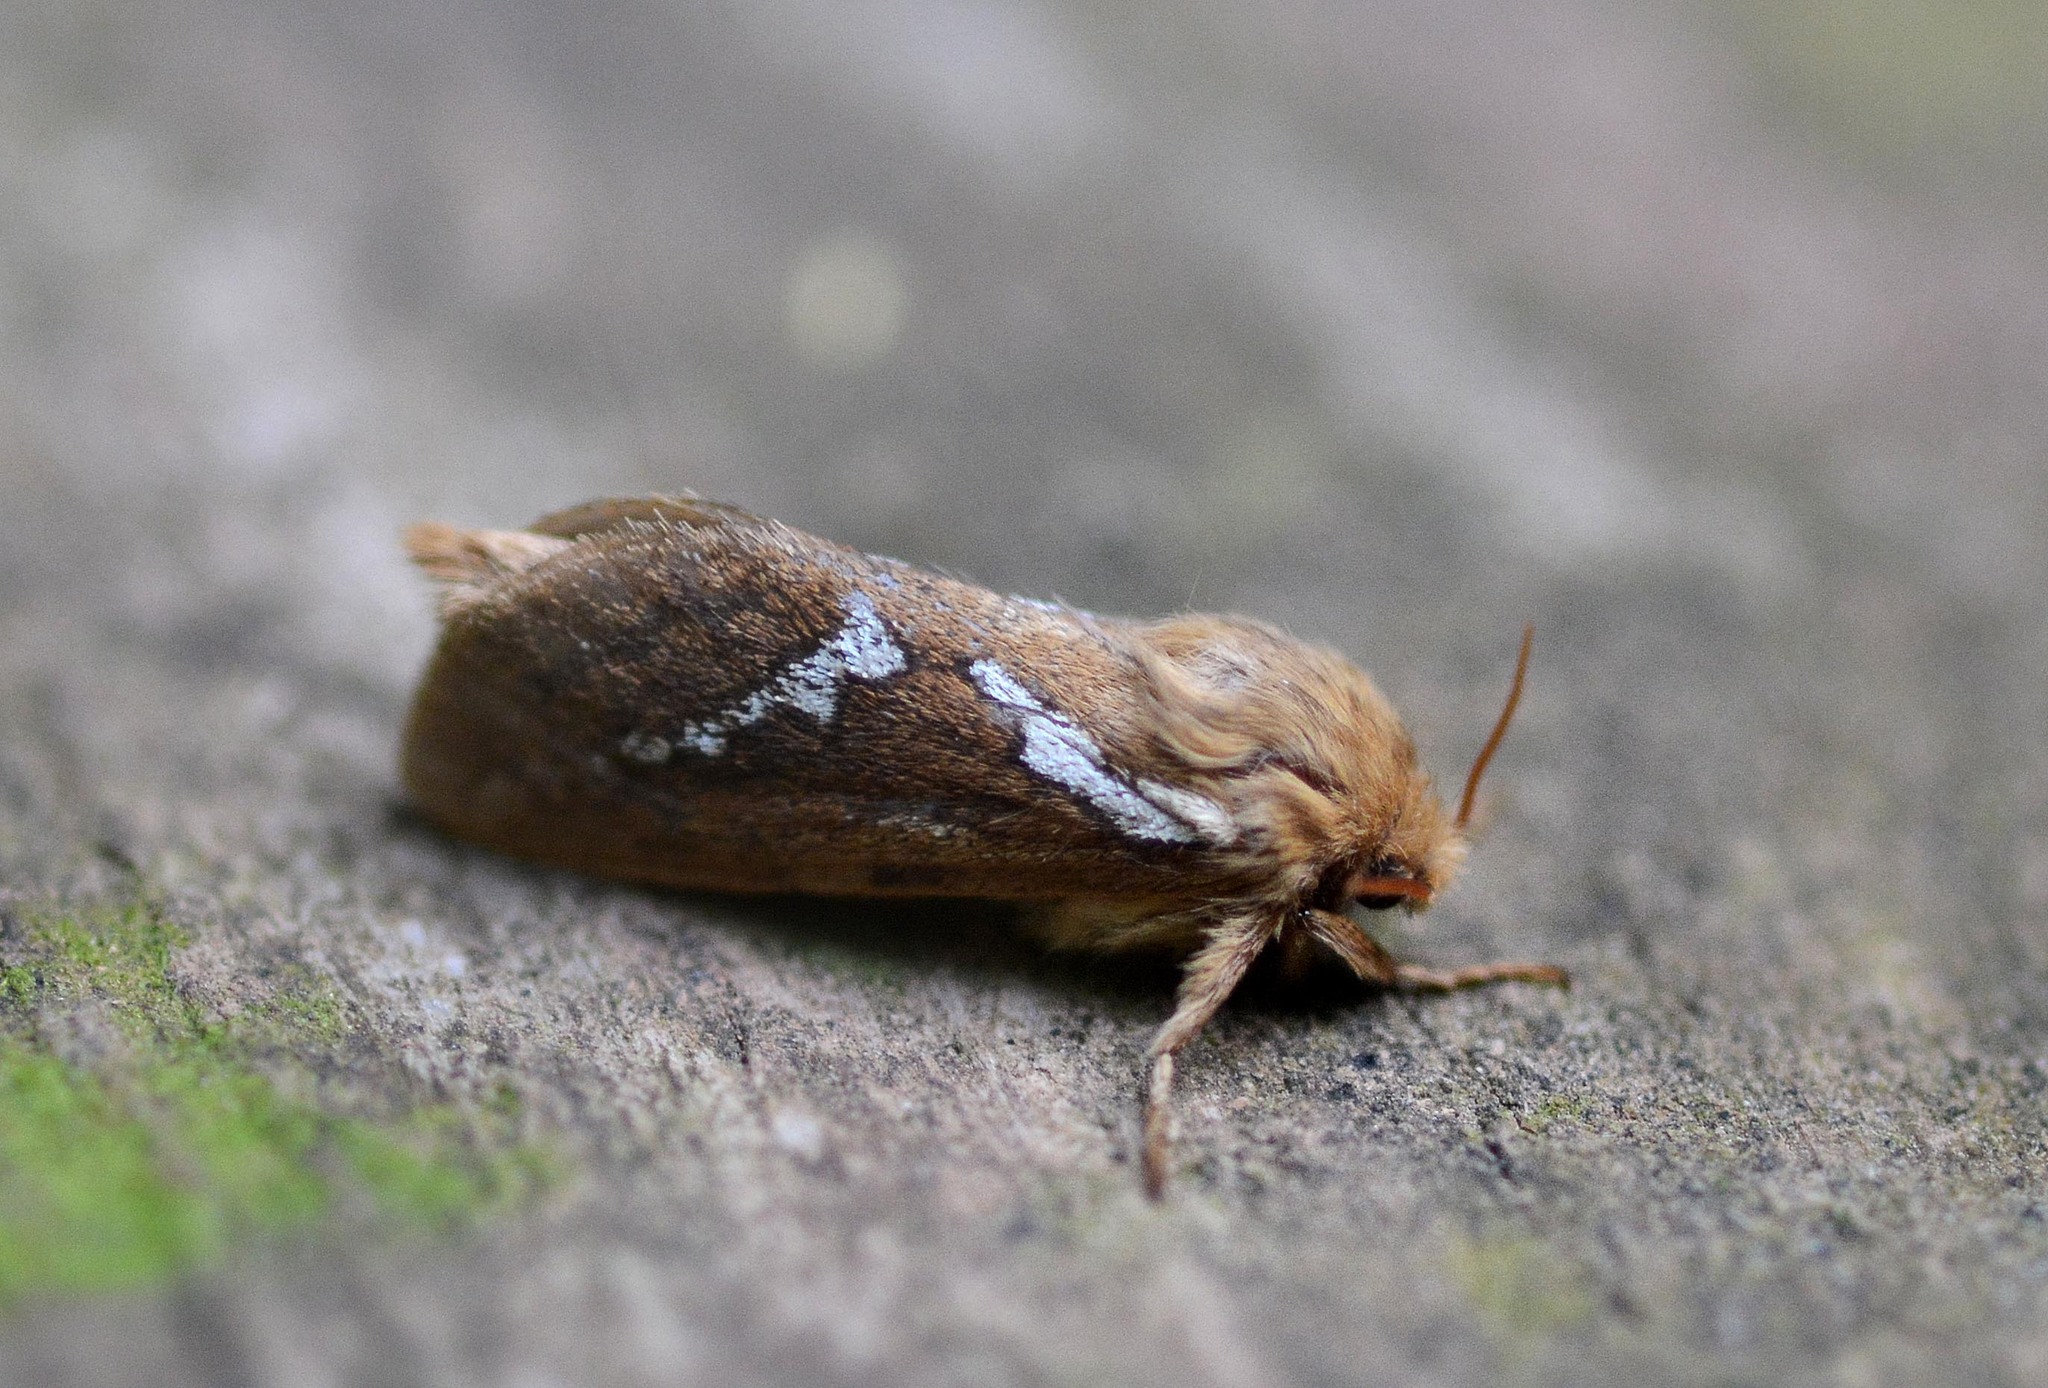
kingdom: Animalia
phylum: Arthropoda
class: Insecta
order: Lepidoptera
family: Hepialidae
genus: Korscheltellus
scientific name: Korscheltellus lupulina
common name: Common swift
